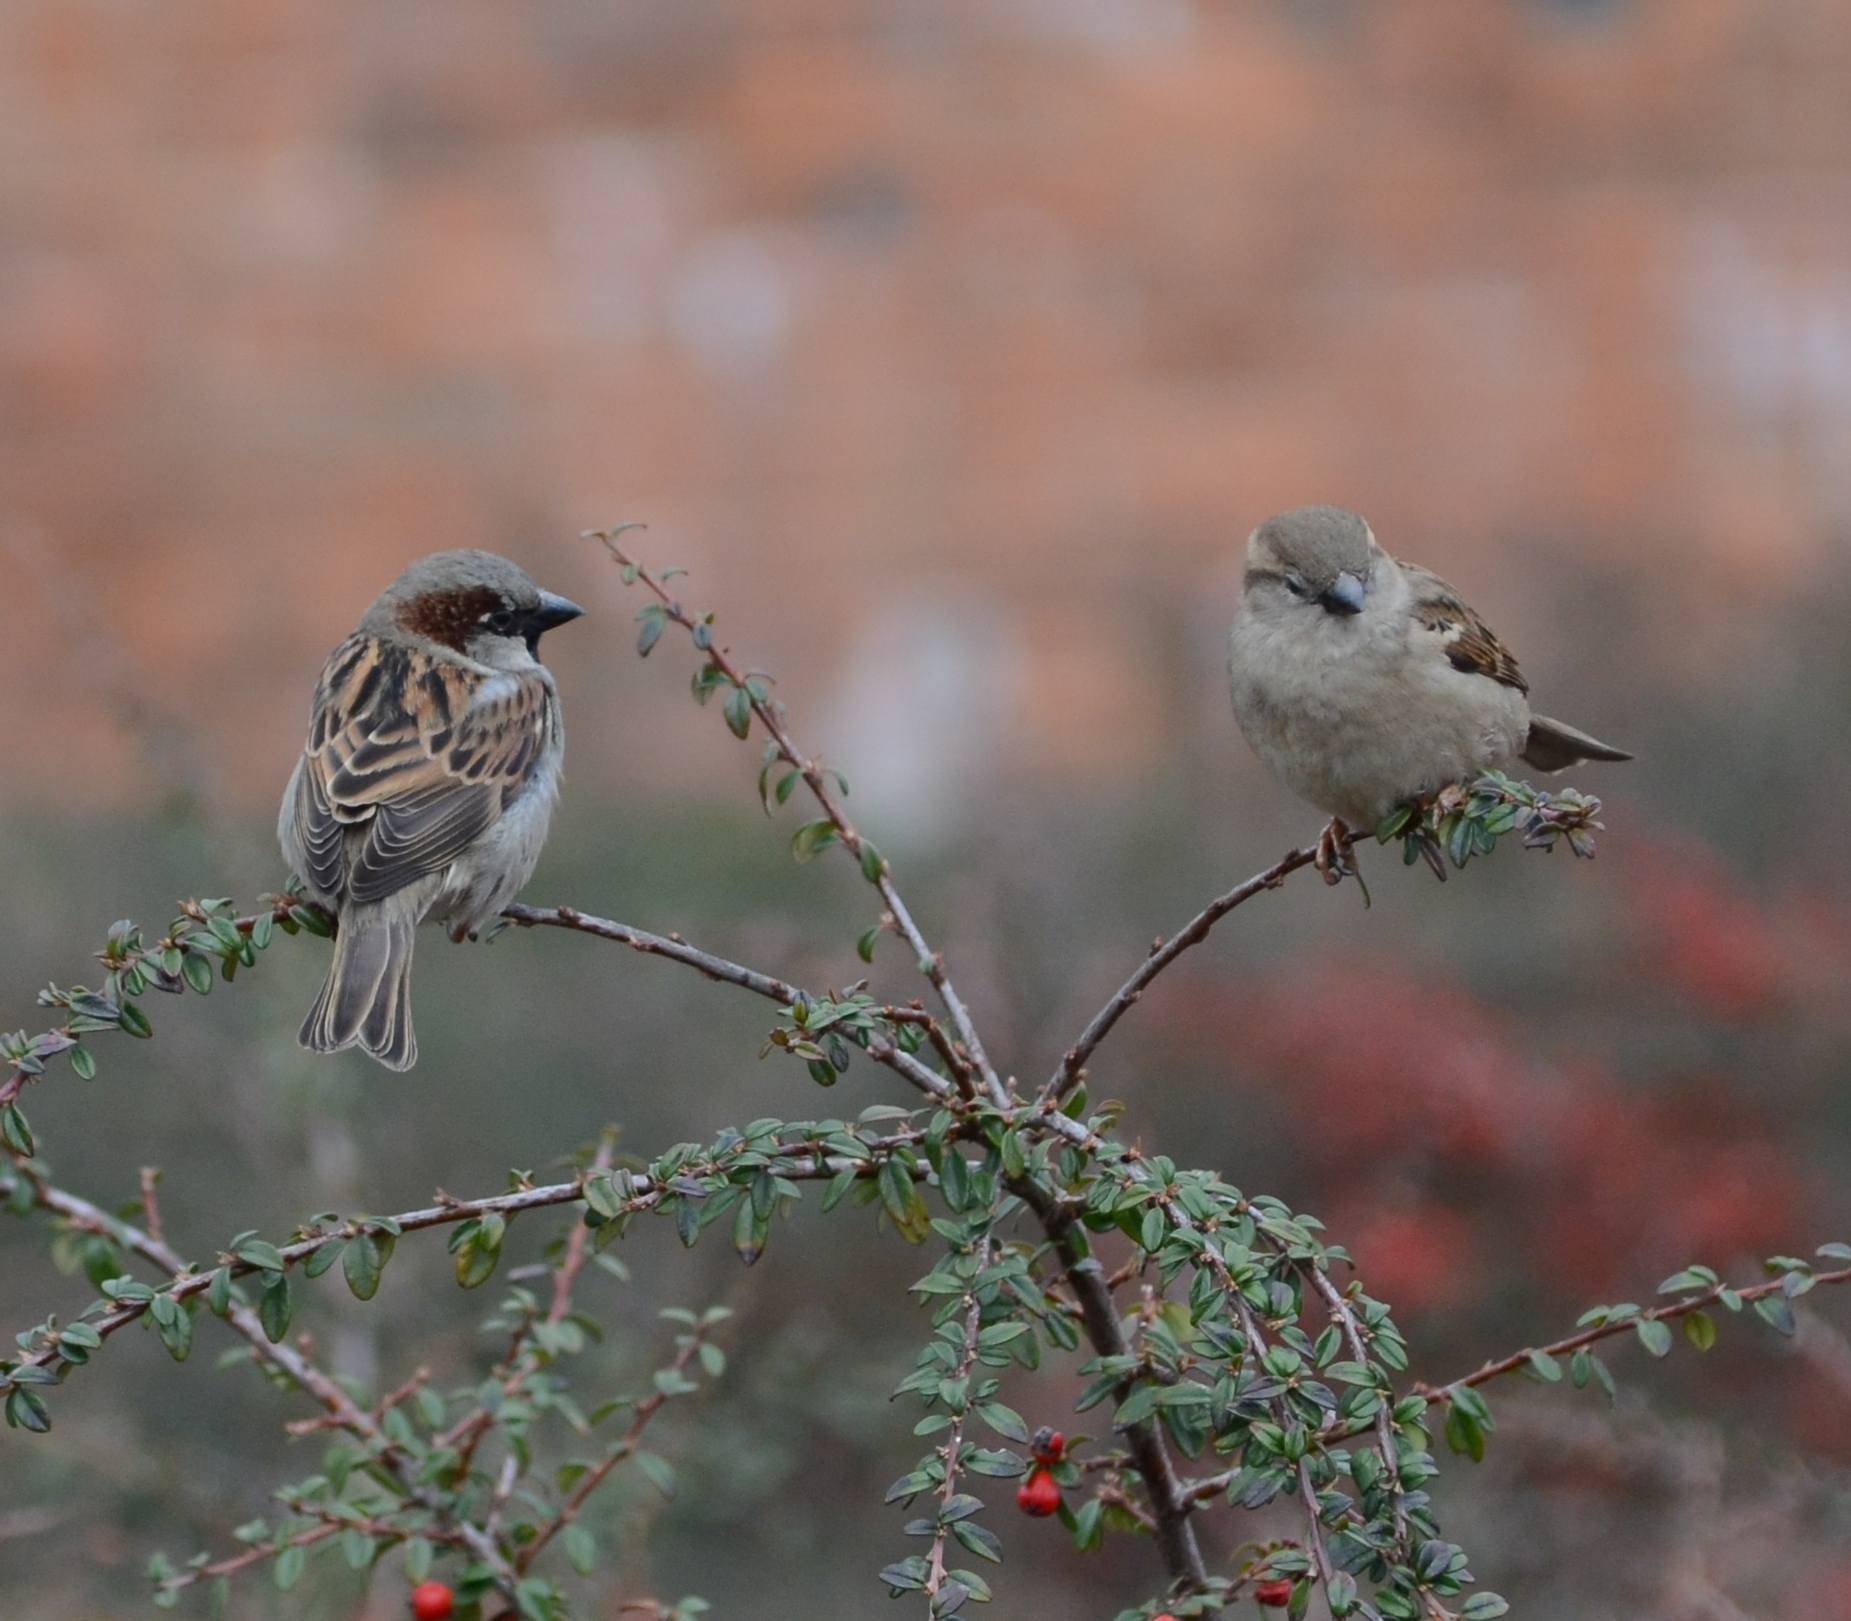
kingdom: Animalia
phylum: Chordata
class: Aves
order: Passeriformes
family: Passeridae
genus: Passer
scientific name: Passer domesticus
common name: House sparrow
